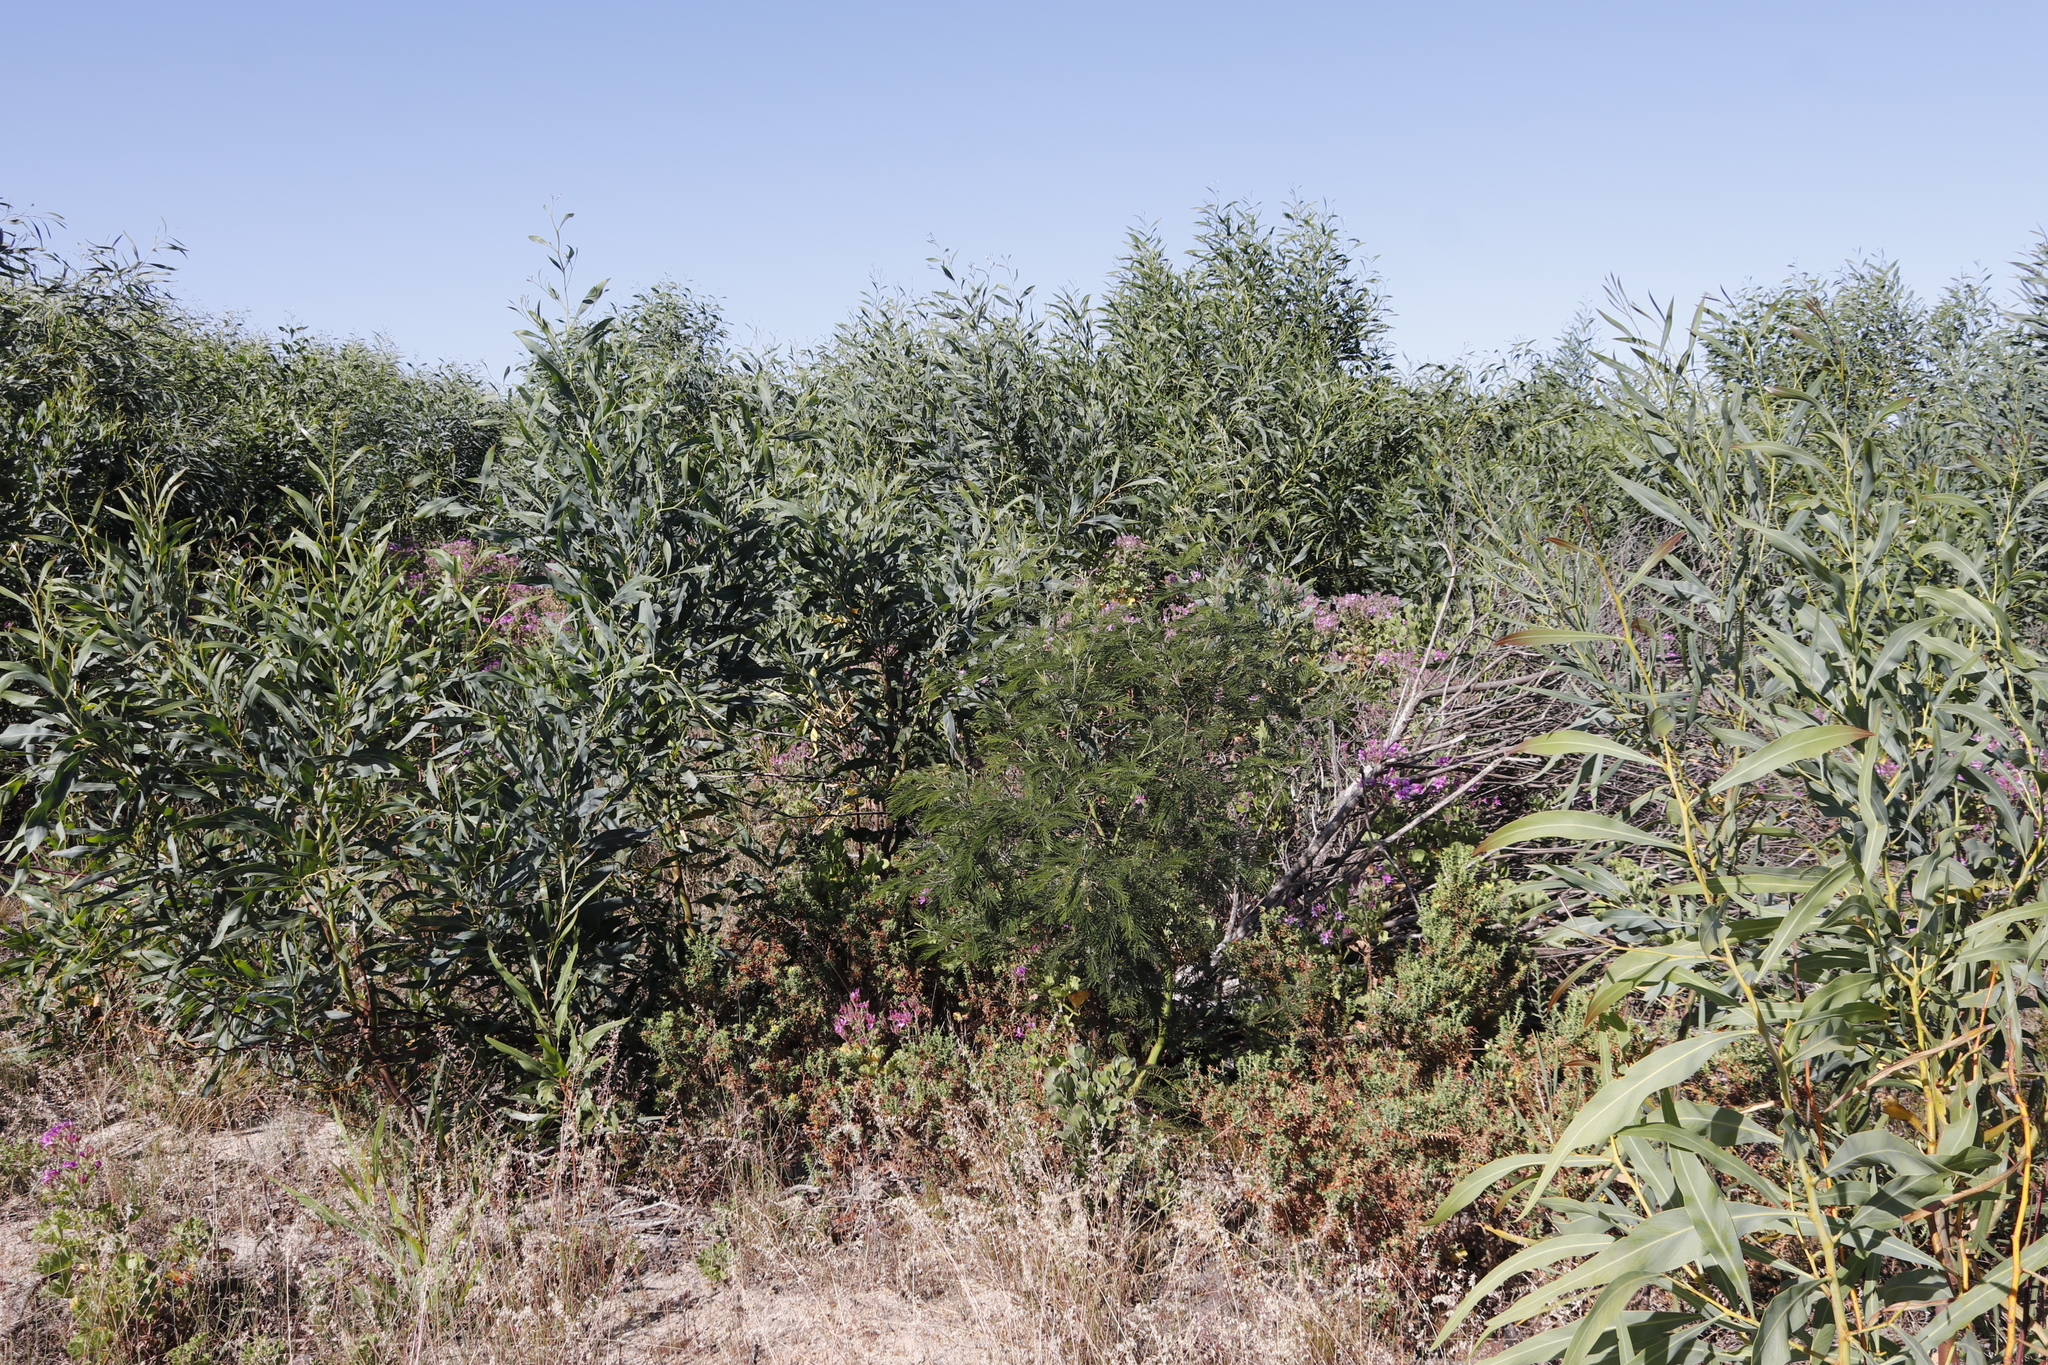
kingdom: Plantae
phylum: Tracheophyta
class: Magnoliopsida
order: Fabales
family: Fabaceae
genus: Acacia
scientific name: Acacia mearnsii
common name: Black wattle
